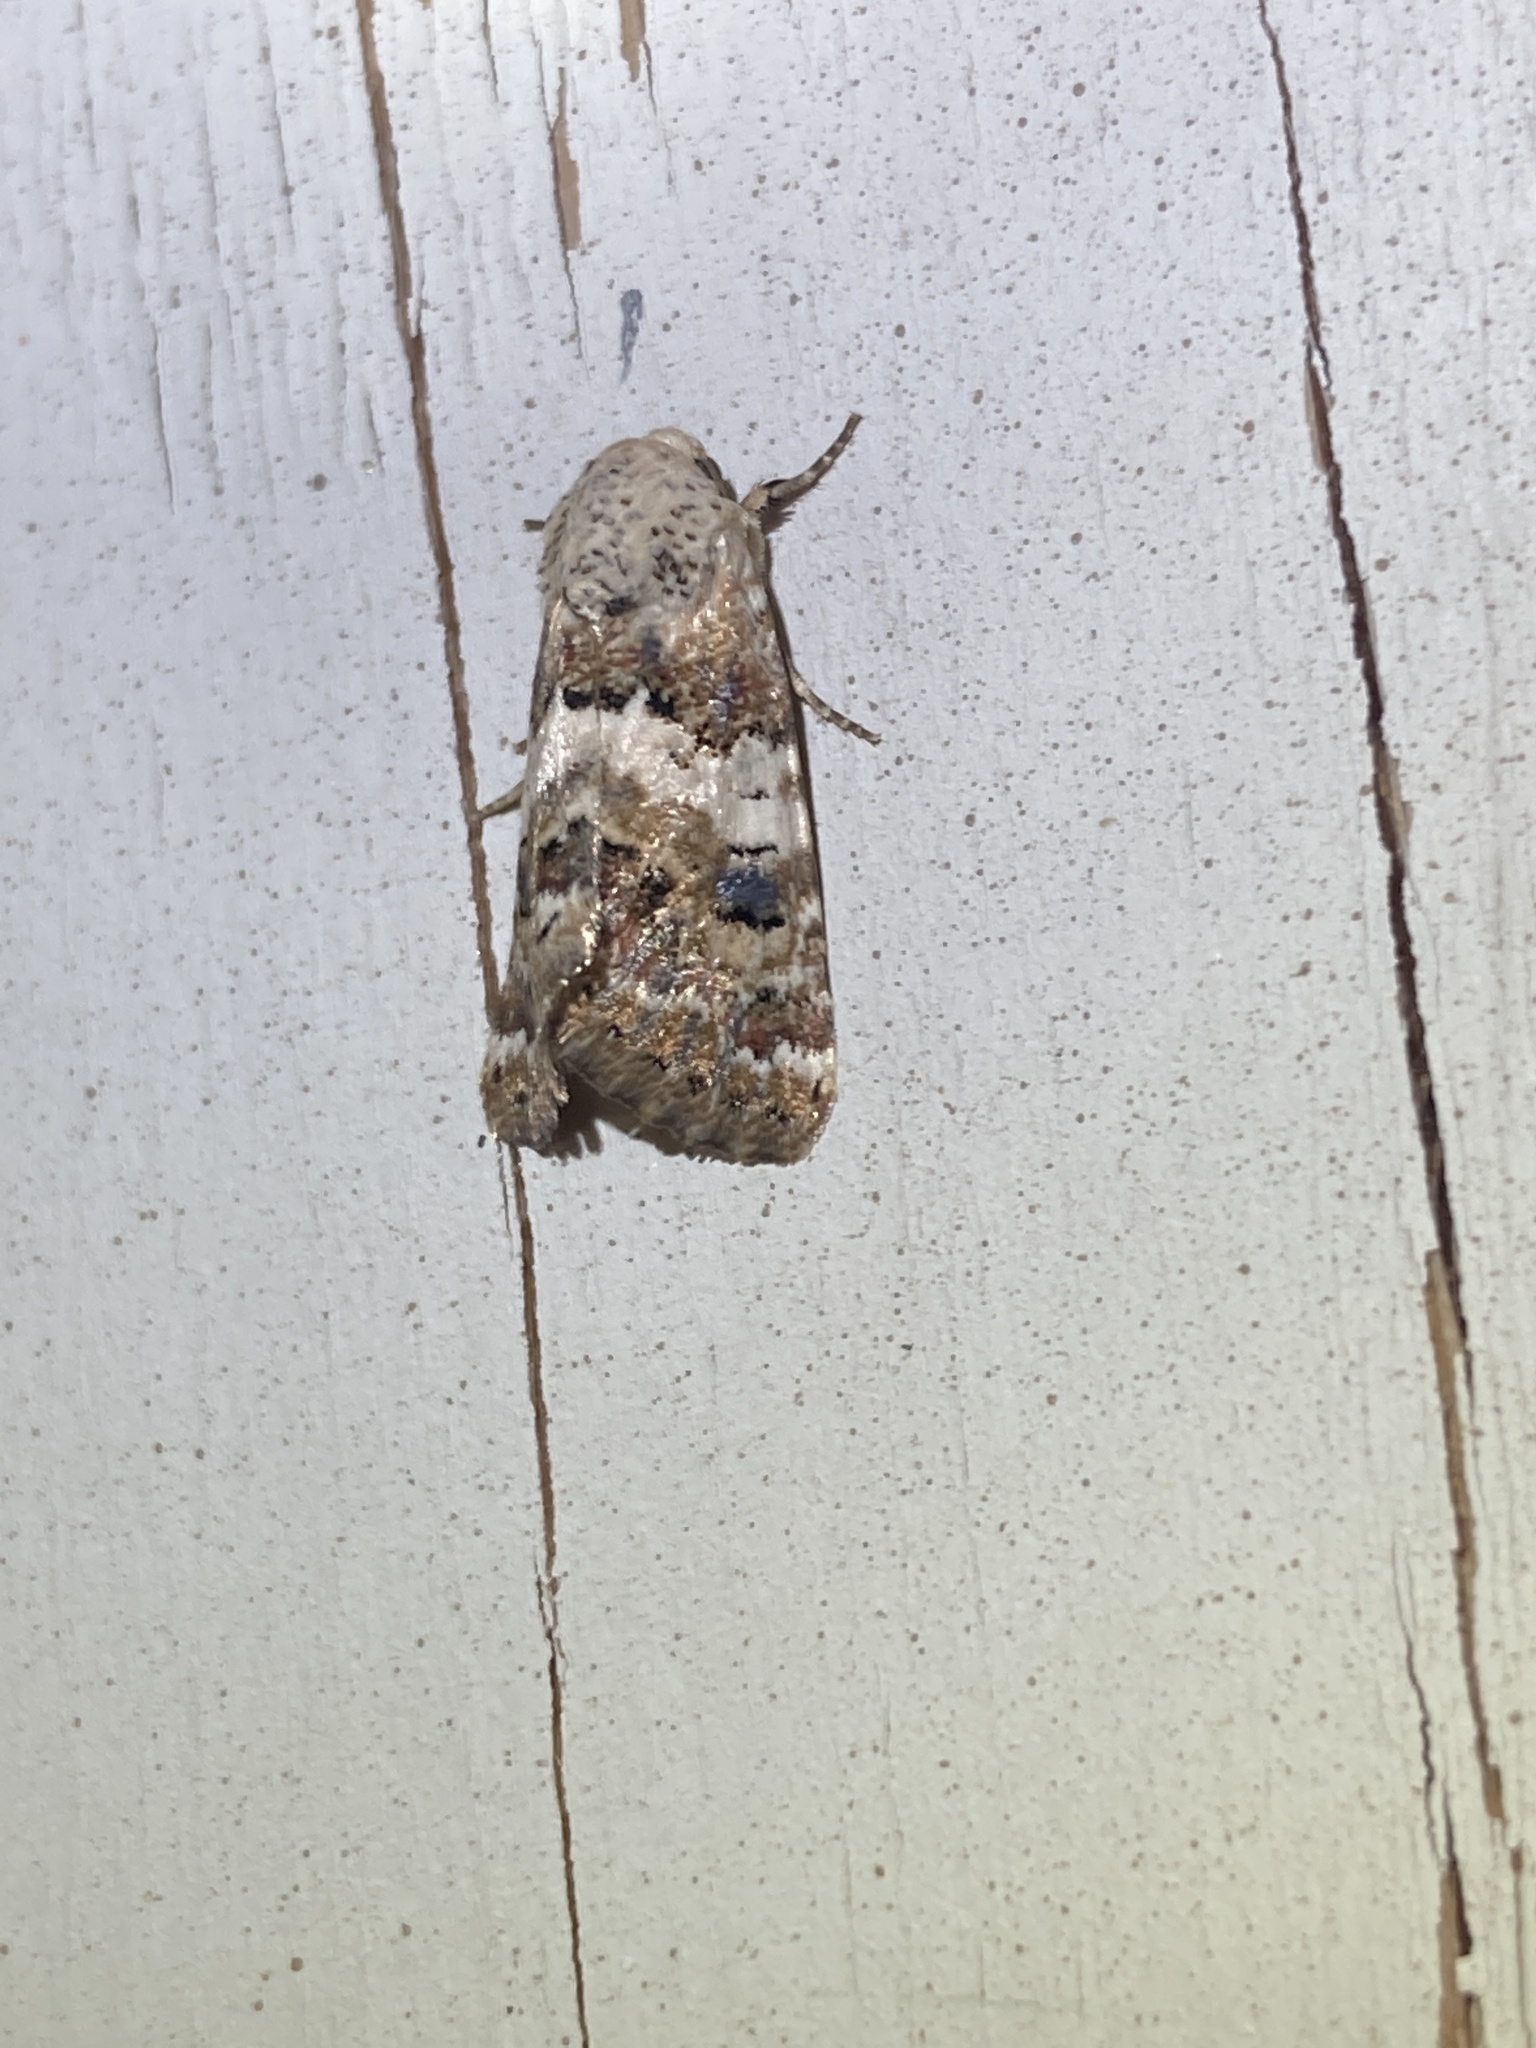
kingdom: Animalia
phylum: Arthropoda
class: Insecta
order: Lepidoptera
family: Noctuidae
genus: Schinia
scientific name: Schinia tertia
